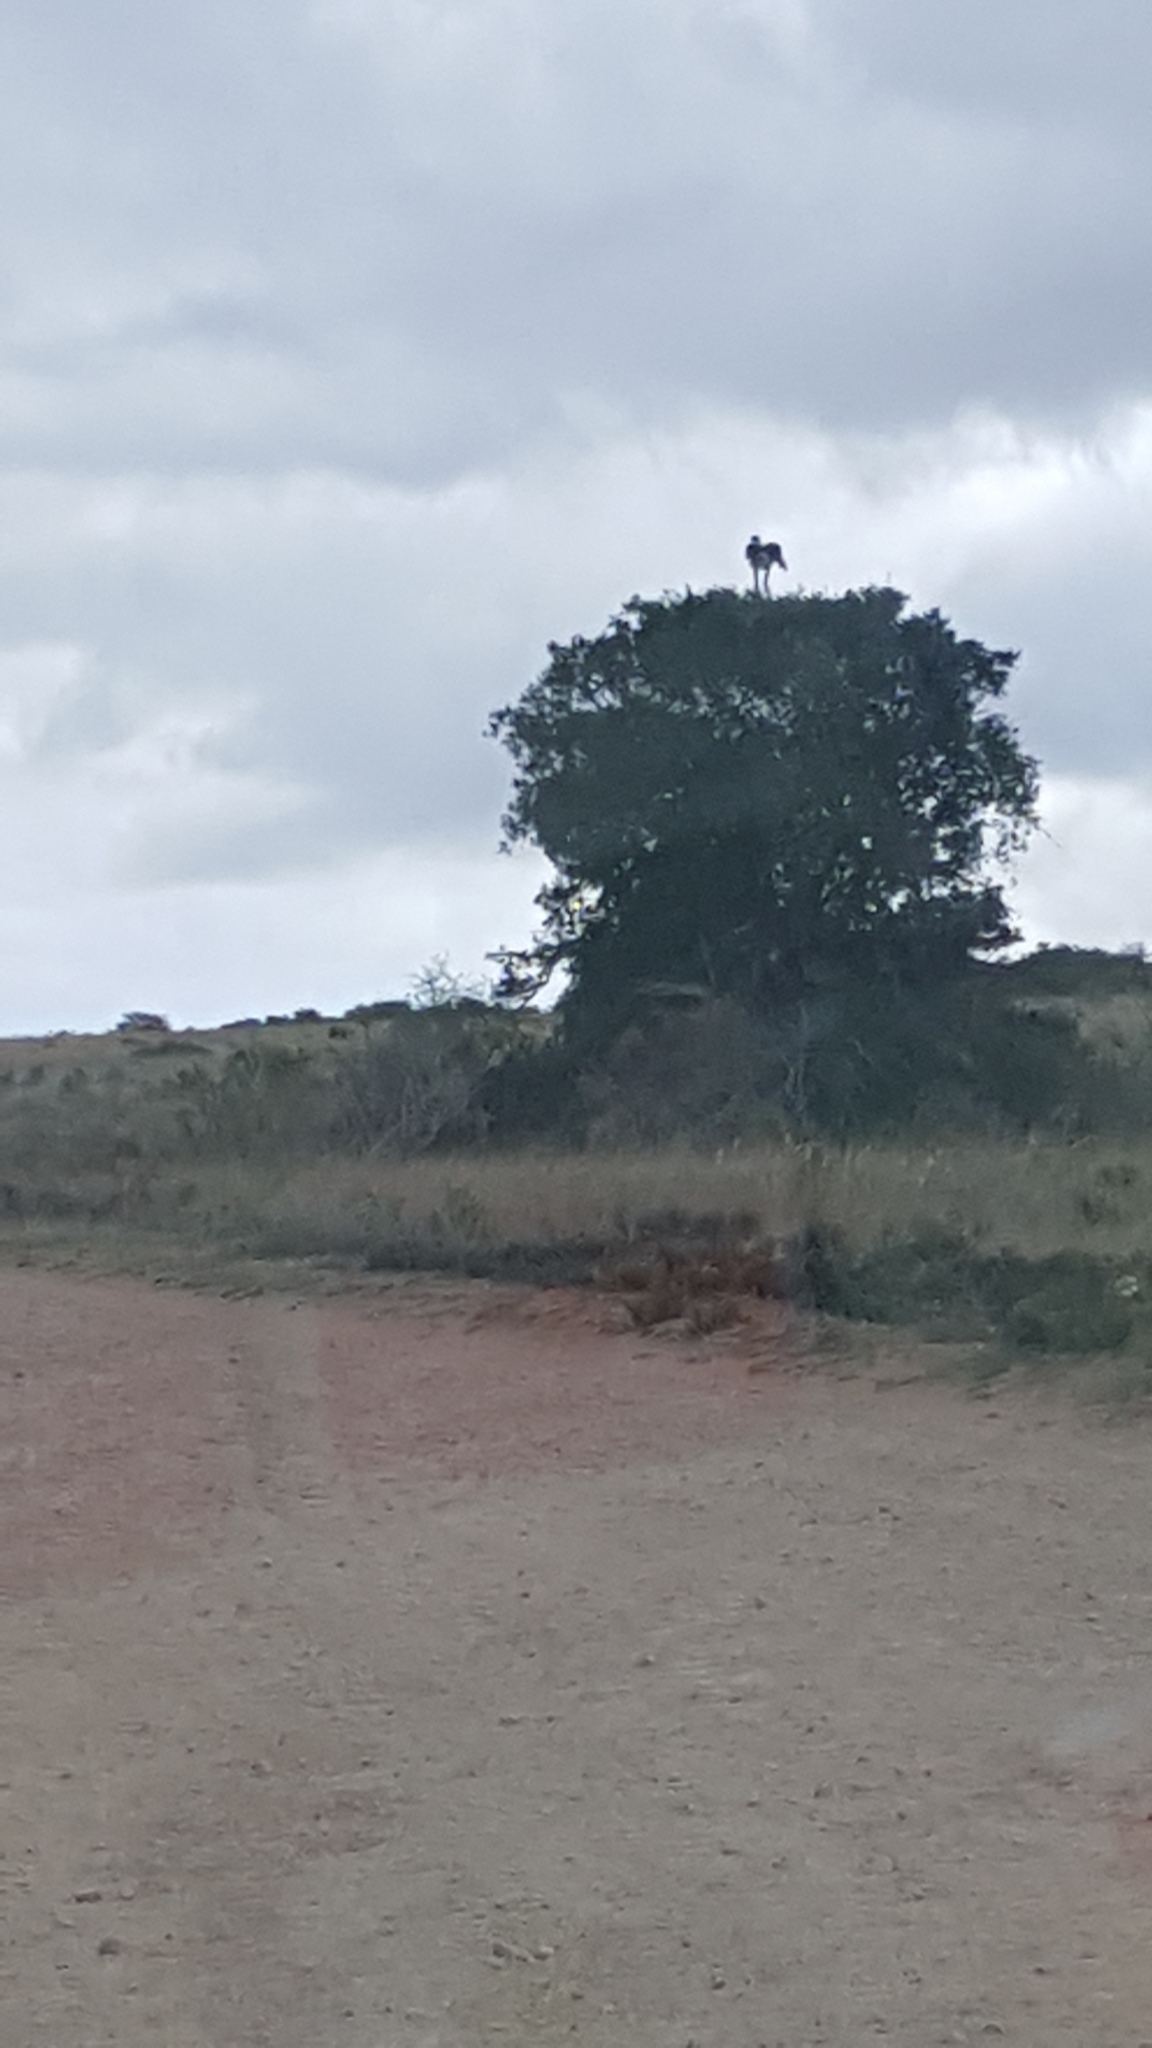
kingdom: Animalia
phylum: Chordata
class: Aves
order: Accipitriformes
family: Sagittariidae
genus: Sagittarius
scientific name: Sagittarius serpentarius
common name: Secretarybird
